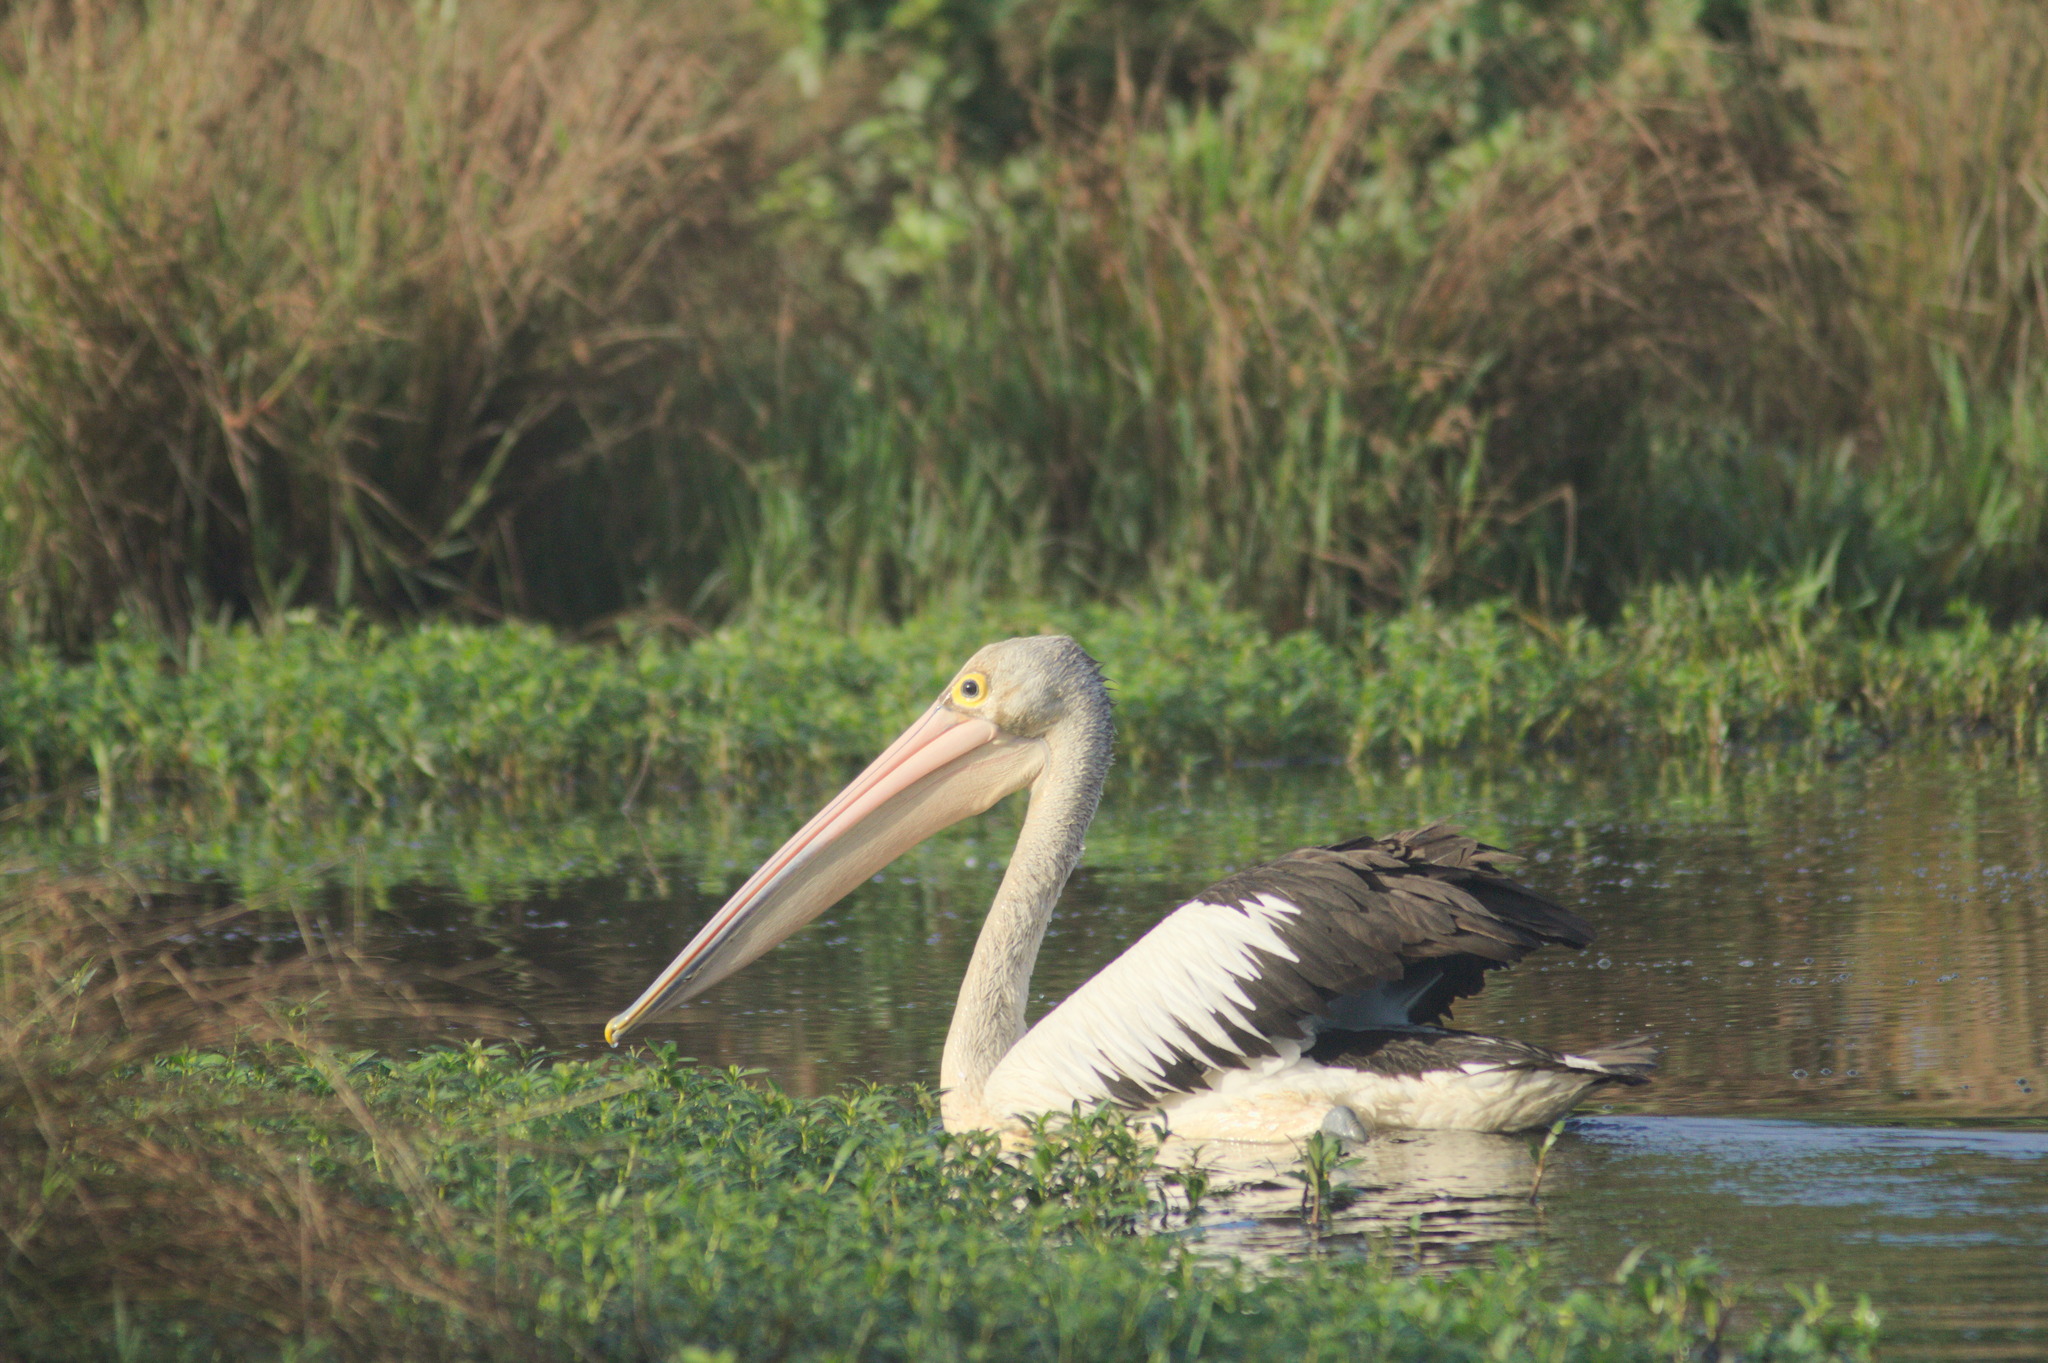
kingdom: Animalia
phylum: Chordata
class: Aves
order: Pelecaniformes
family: Pelecanidae
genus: Pelecanus
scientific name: Pelecanus conspicillatus
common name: Australian pelican
